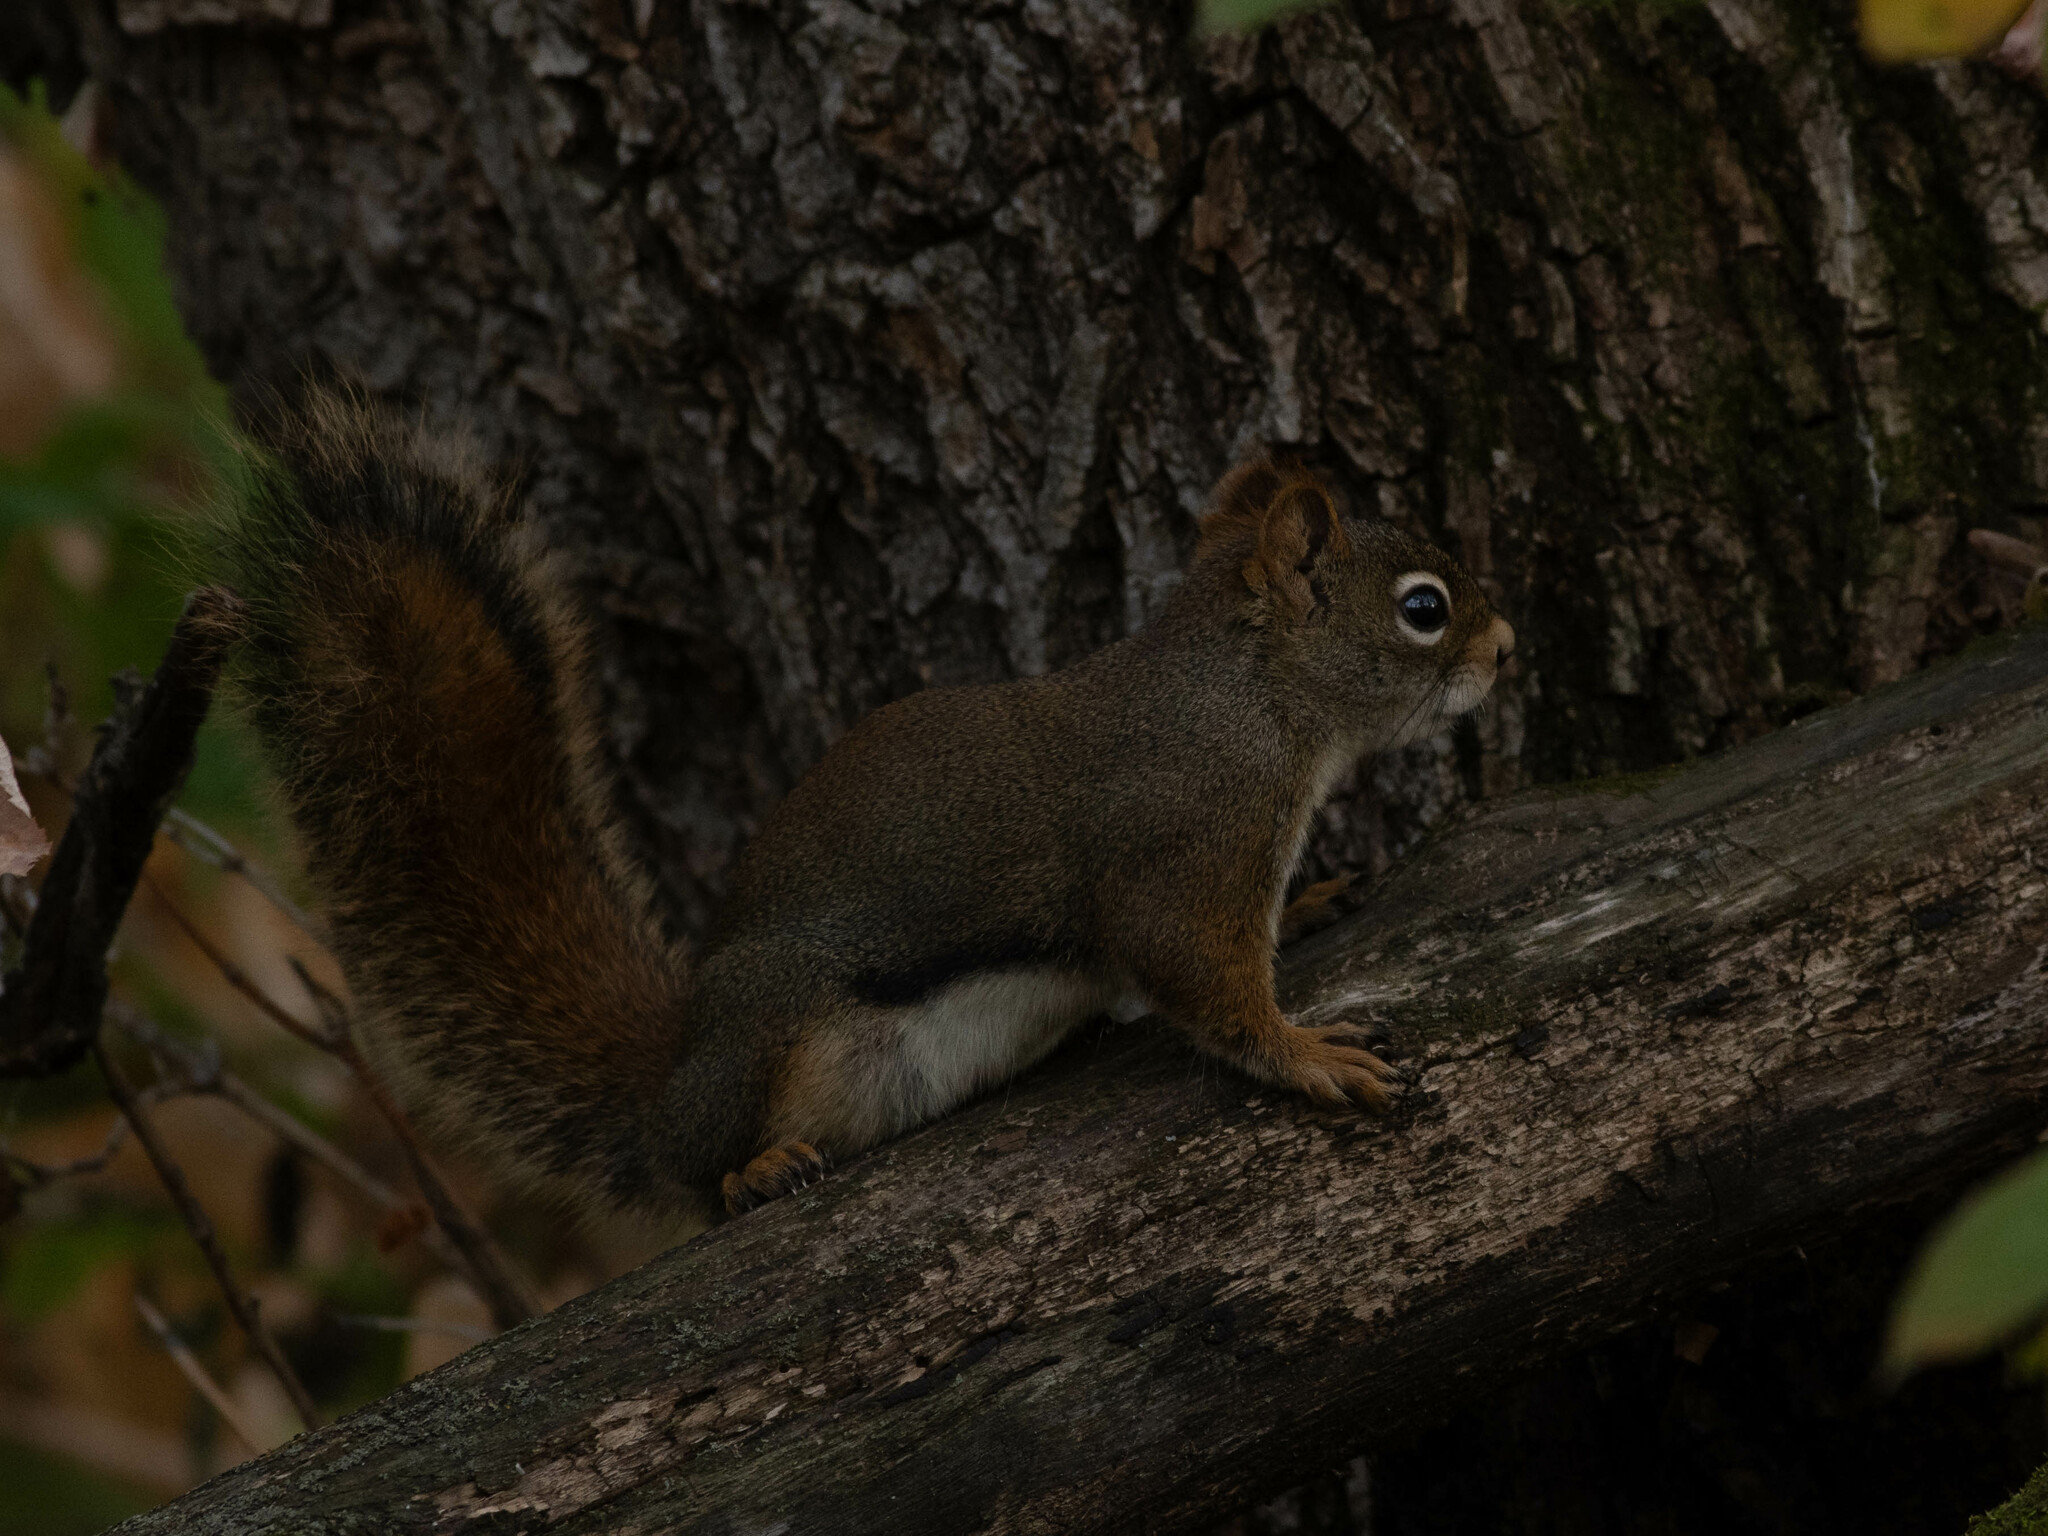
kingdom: Animalia
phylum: Chordata
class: Mammalia
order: Rodentia
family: Sciuridae
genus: Tamiasciurus
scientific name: Tamiasciurus hudsonicus
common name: Red squirrel
